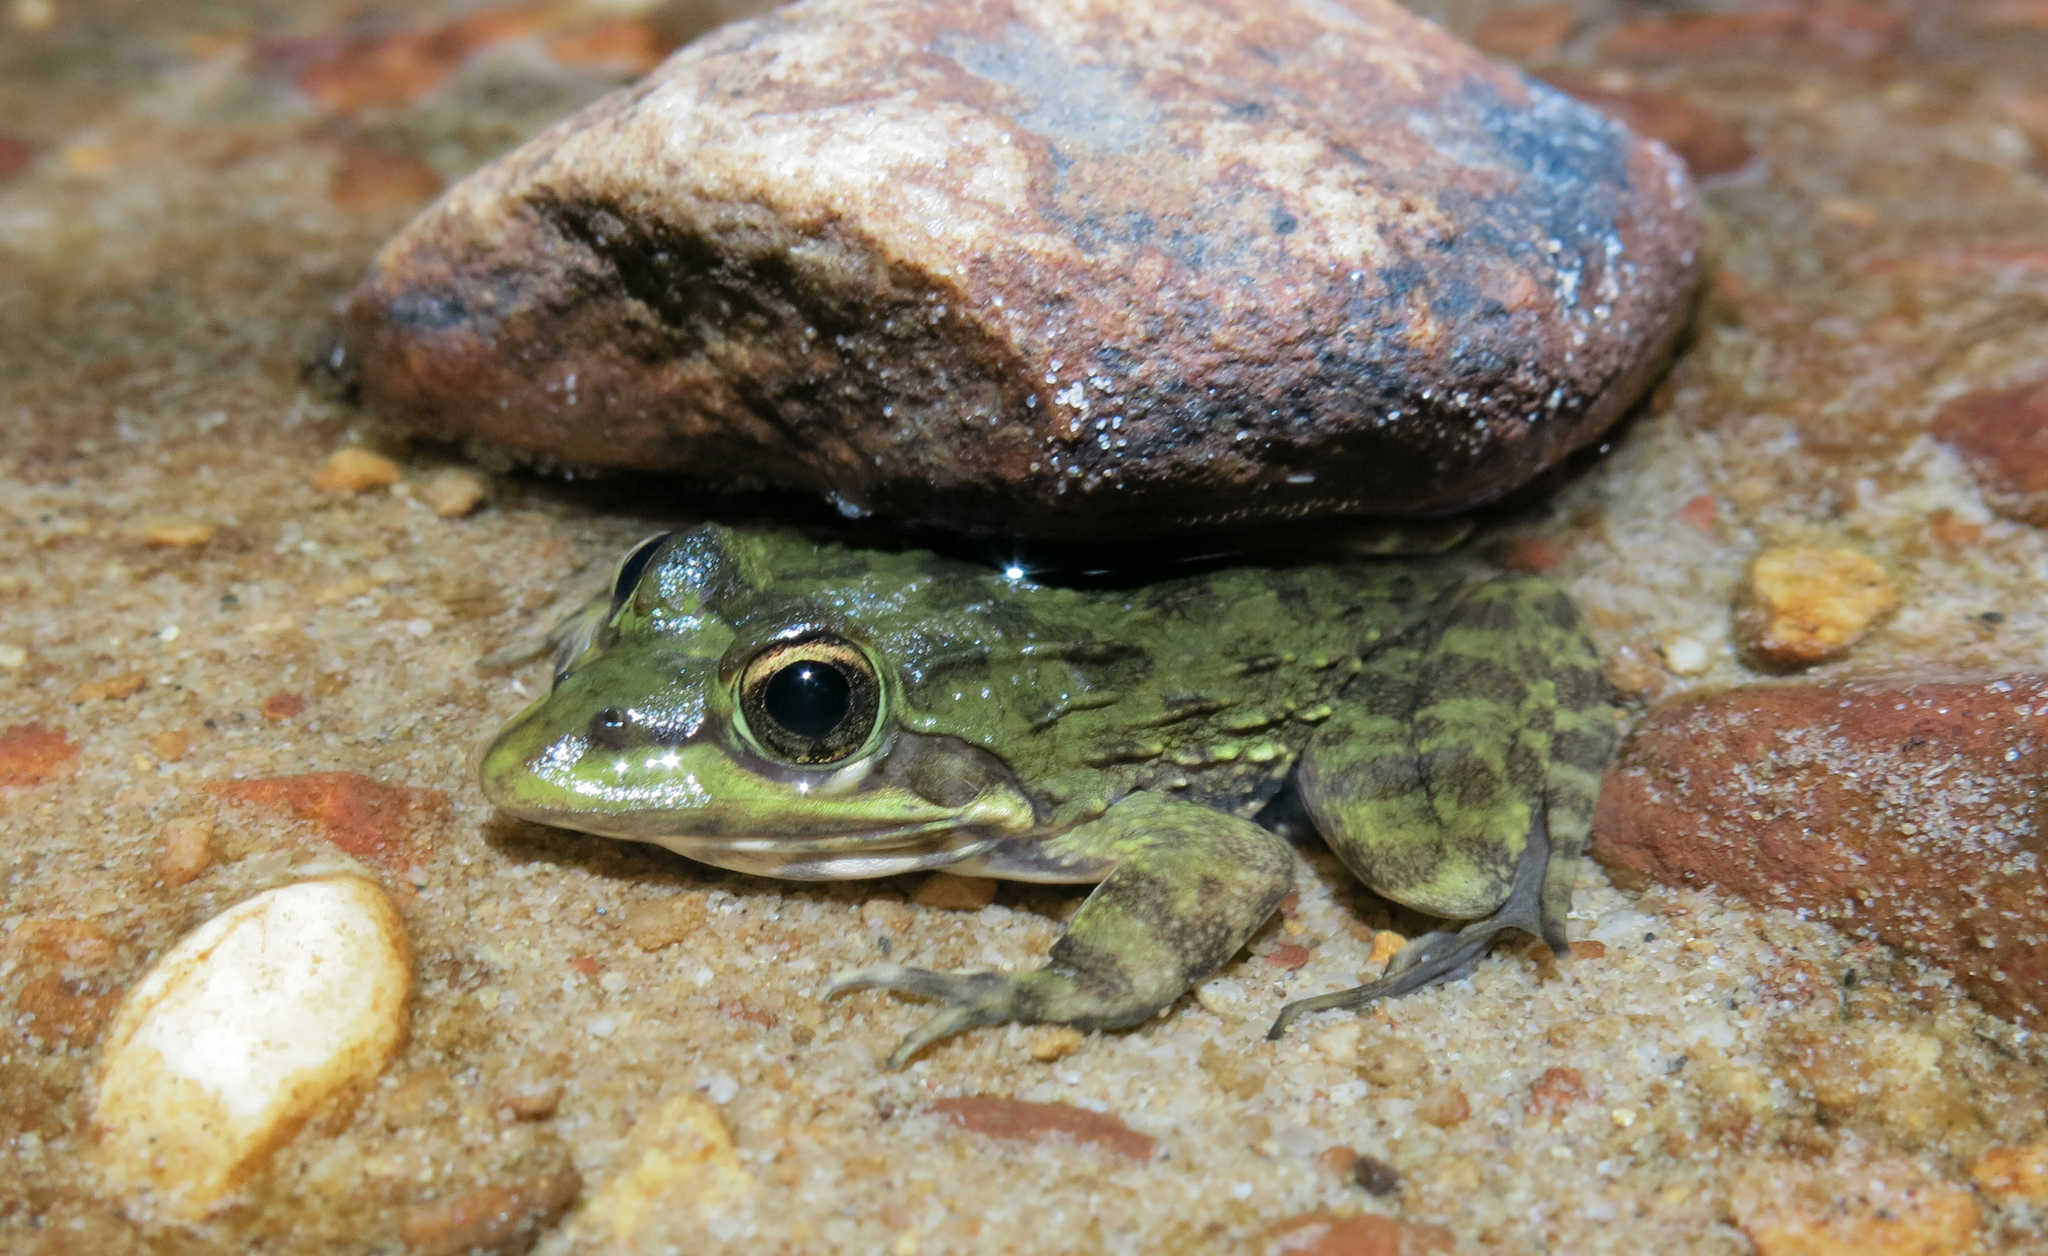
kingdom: Animalia
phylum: Chordata
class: Amphibia
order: Anura
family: Pyxicephalidae
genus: Amietia
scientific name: Amietia fuscigula
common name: Cape rana
